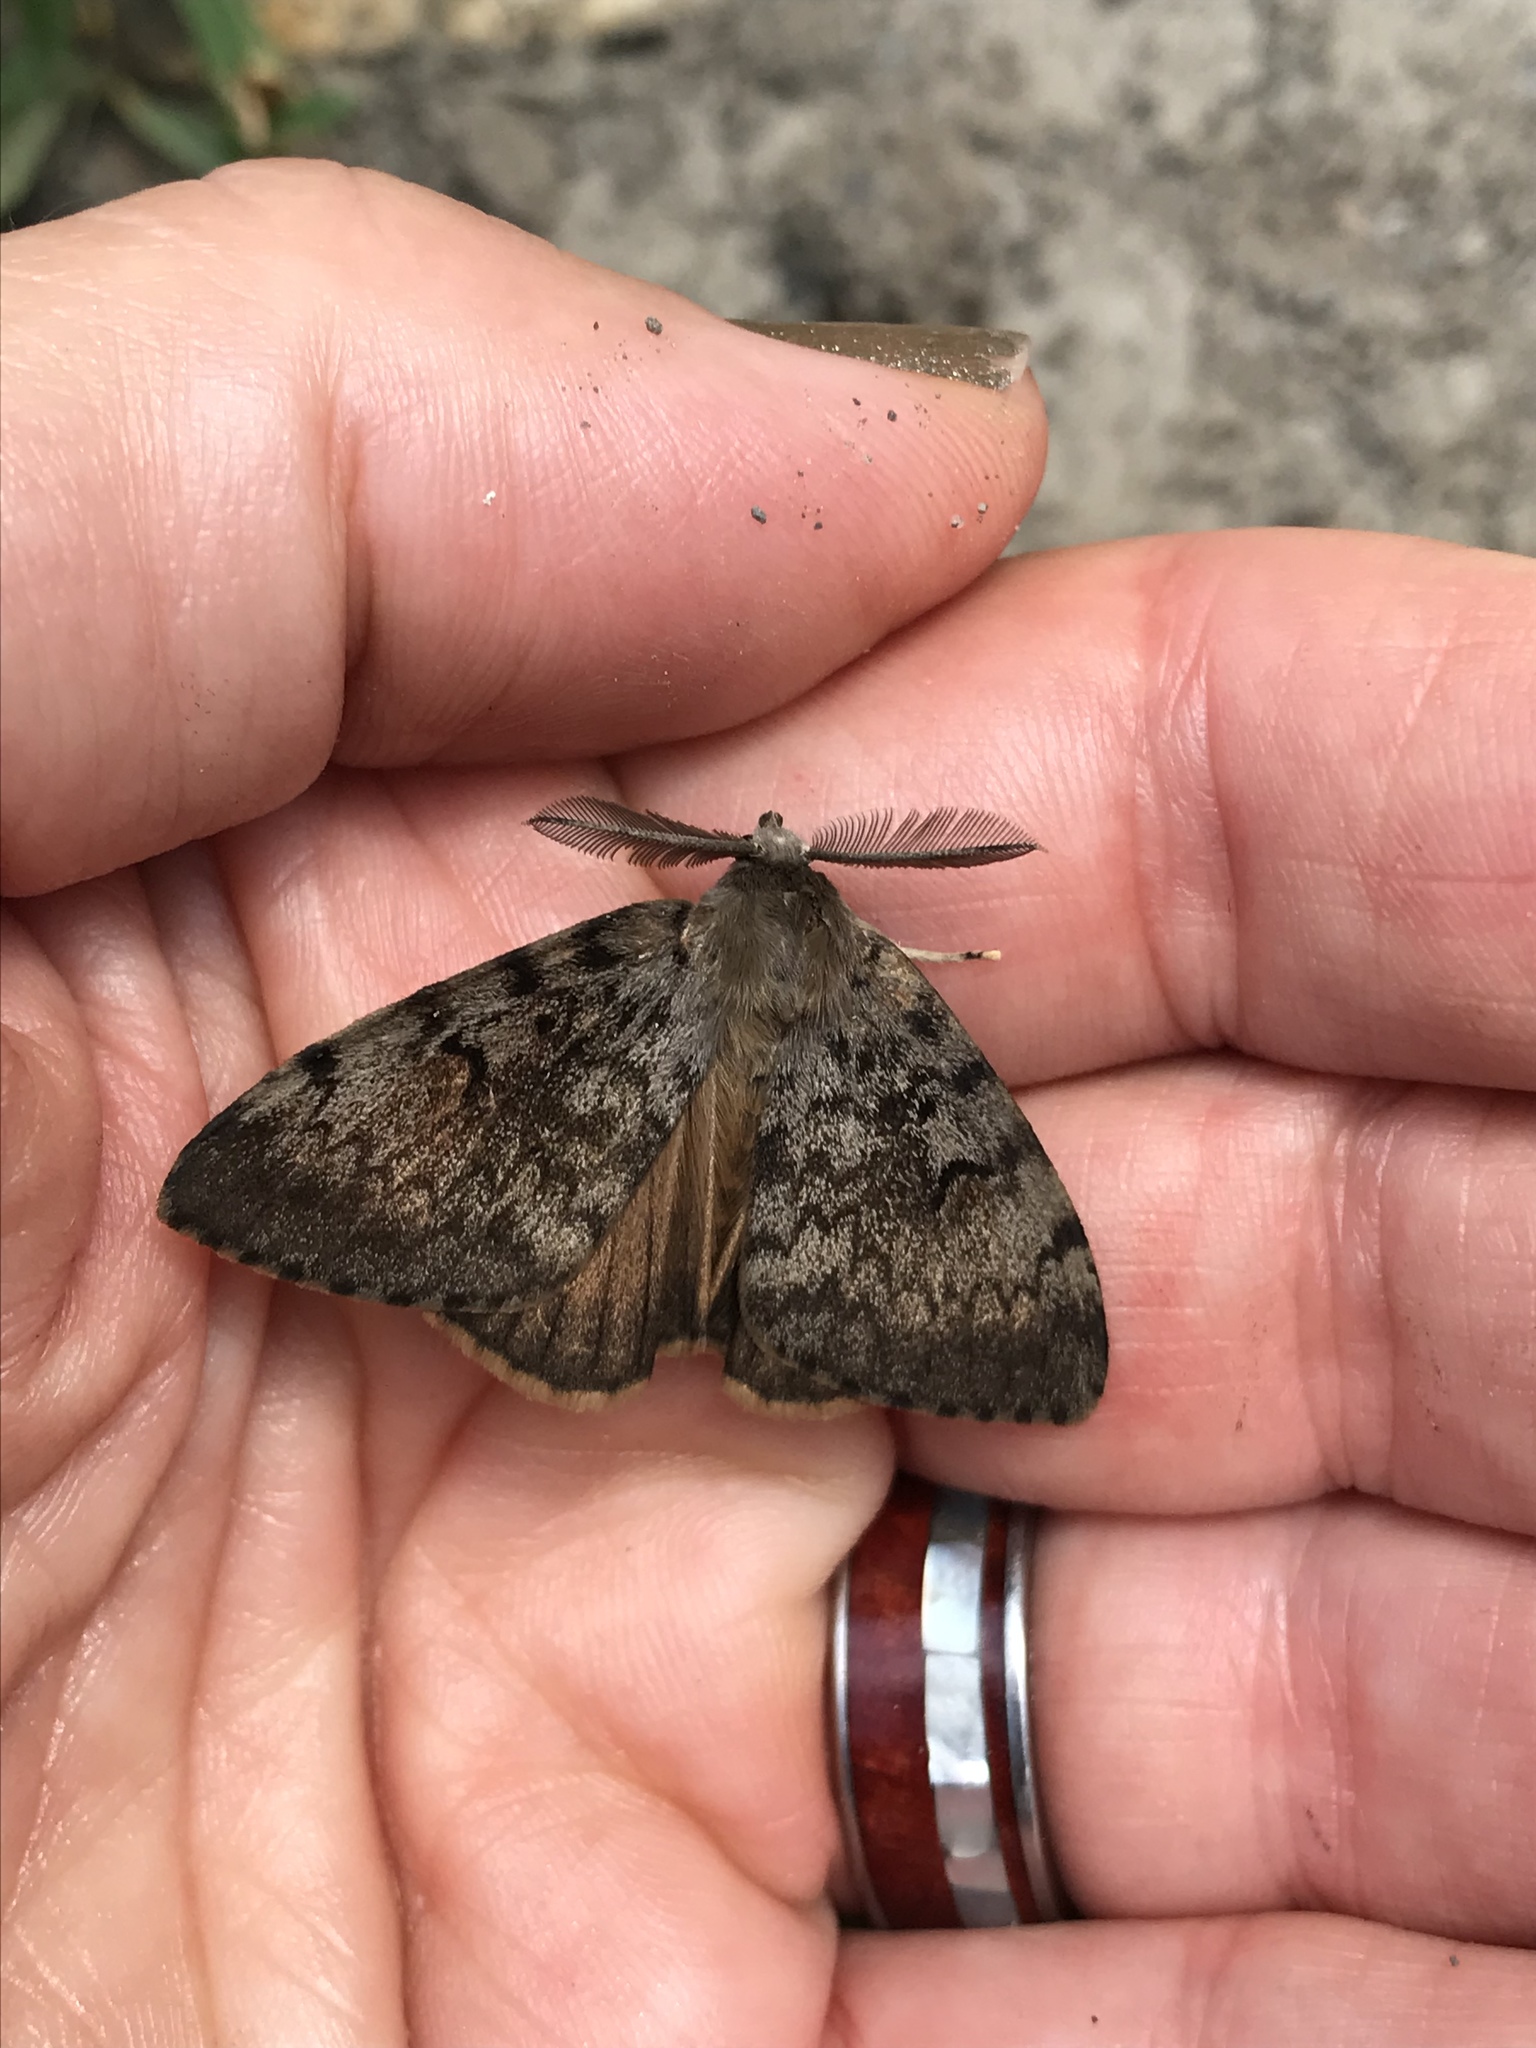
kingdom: Animalia
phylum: Arthropoda
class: Insecta
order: Lepidoptera
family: Erebidae
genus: Lymantria
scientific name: Lymantria dispar
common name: Gypsy moth
